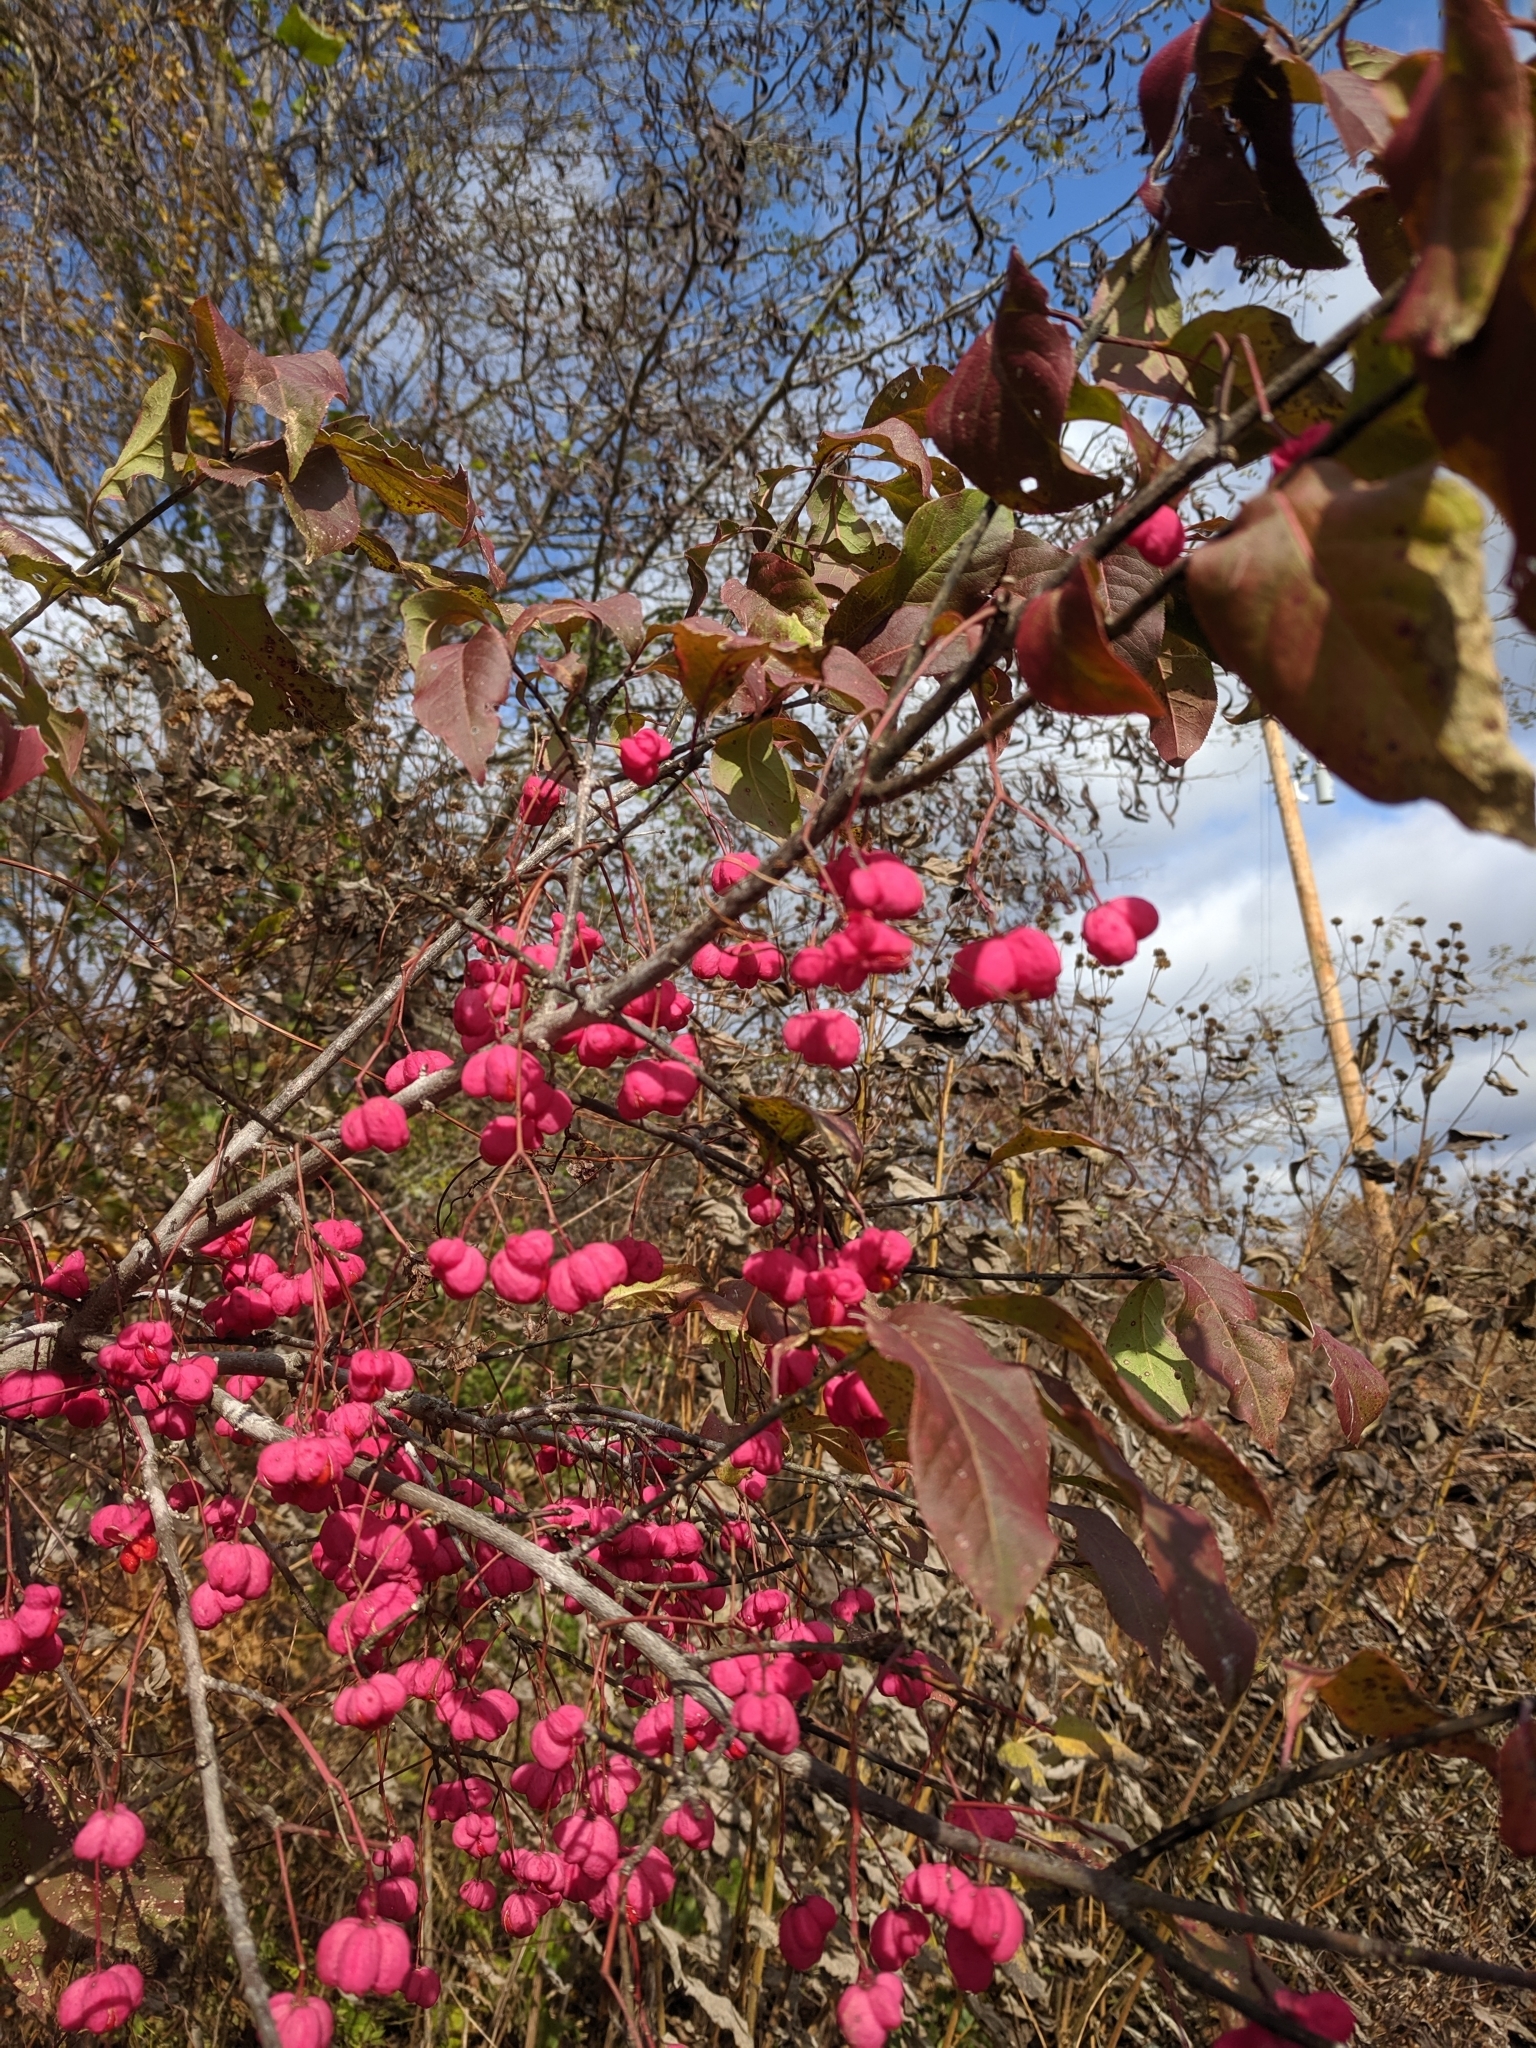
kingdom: Plantae
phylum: Tracheophyta
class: Magnoliopsida
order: Celastrales
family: Celastraceae
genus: Euonymus
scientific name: Euonymus atropurpureus
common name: Eastern wahoo
